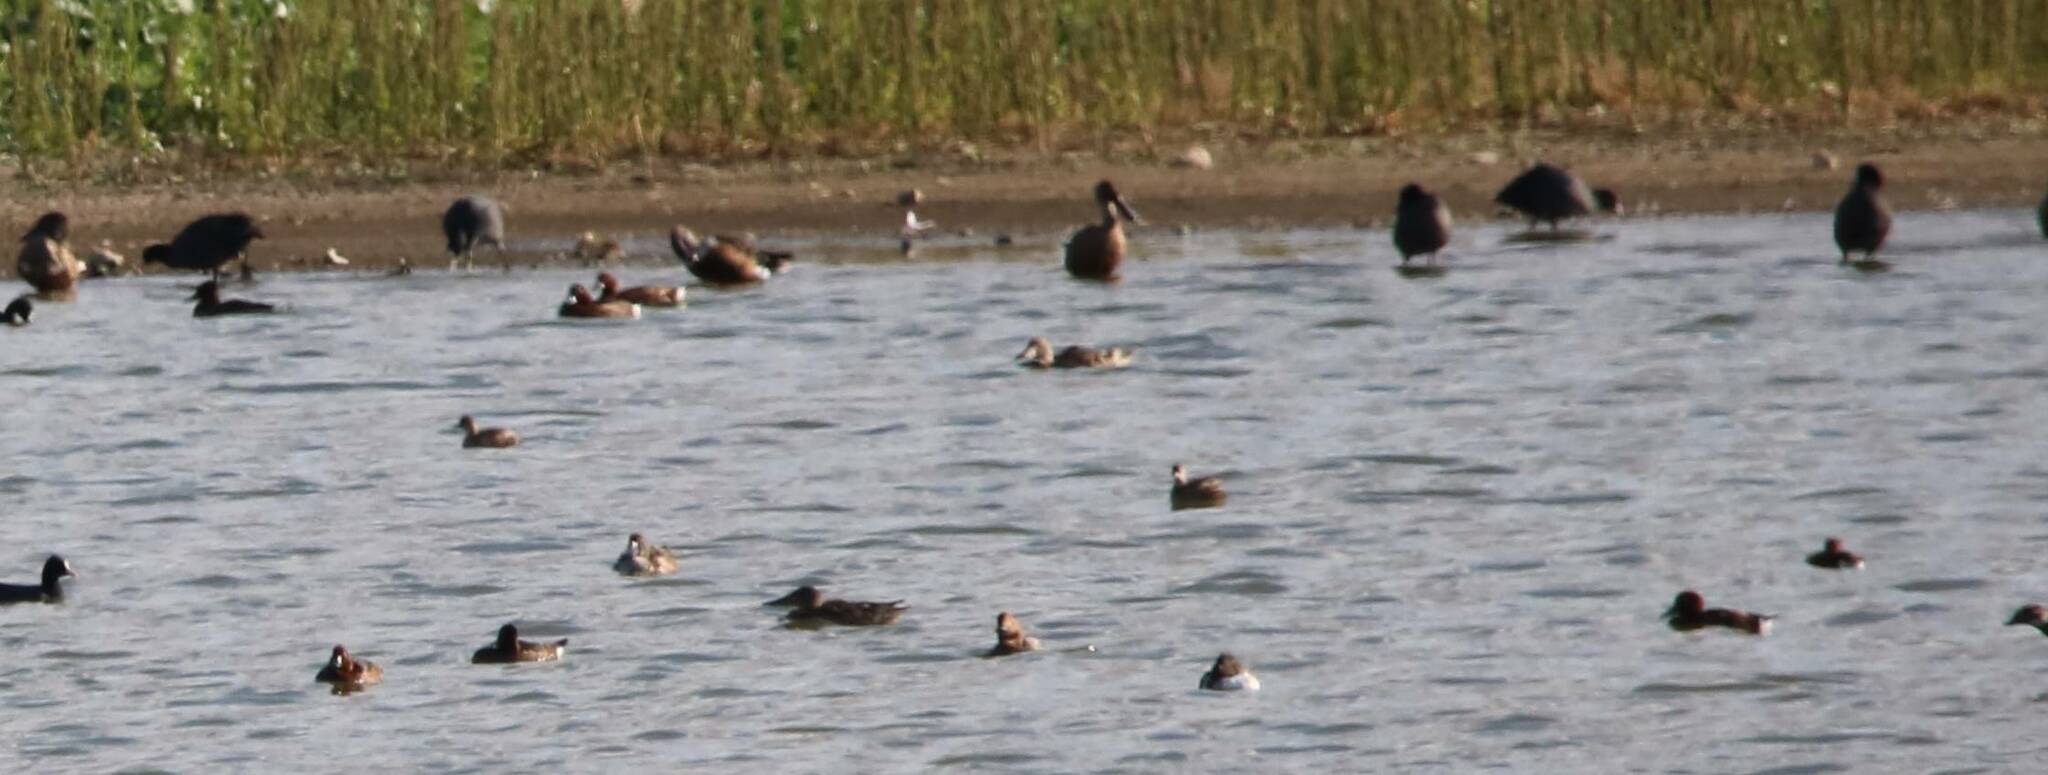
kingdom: Animalia
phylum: Chordata
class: Aves
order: Anseriformes
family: Anatidae
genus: Spatula
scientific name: Spatula clypeata
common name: Northern shoveler
